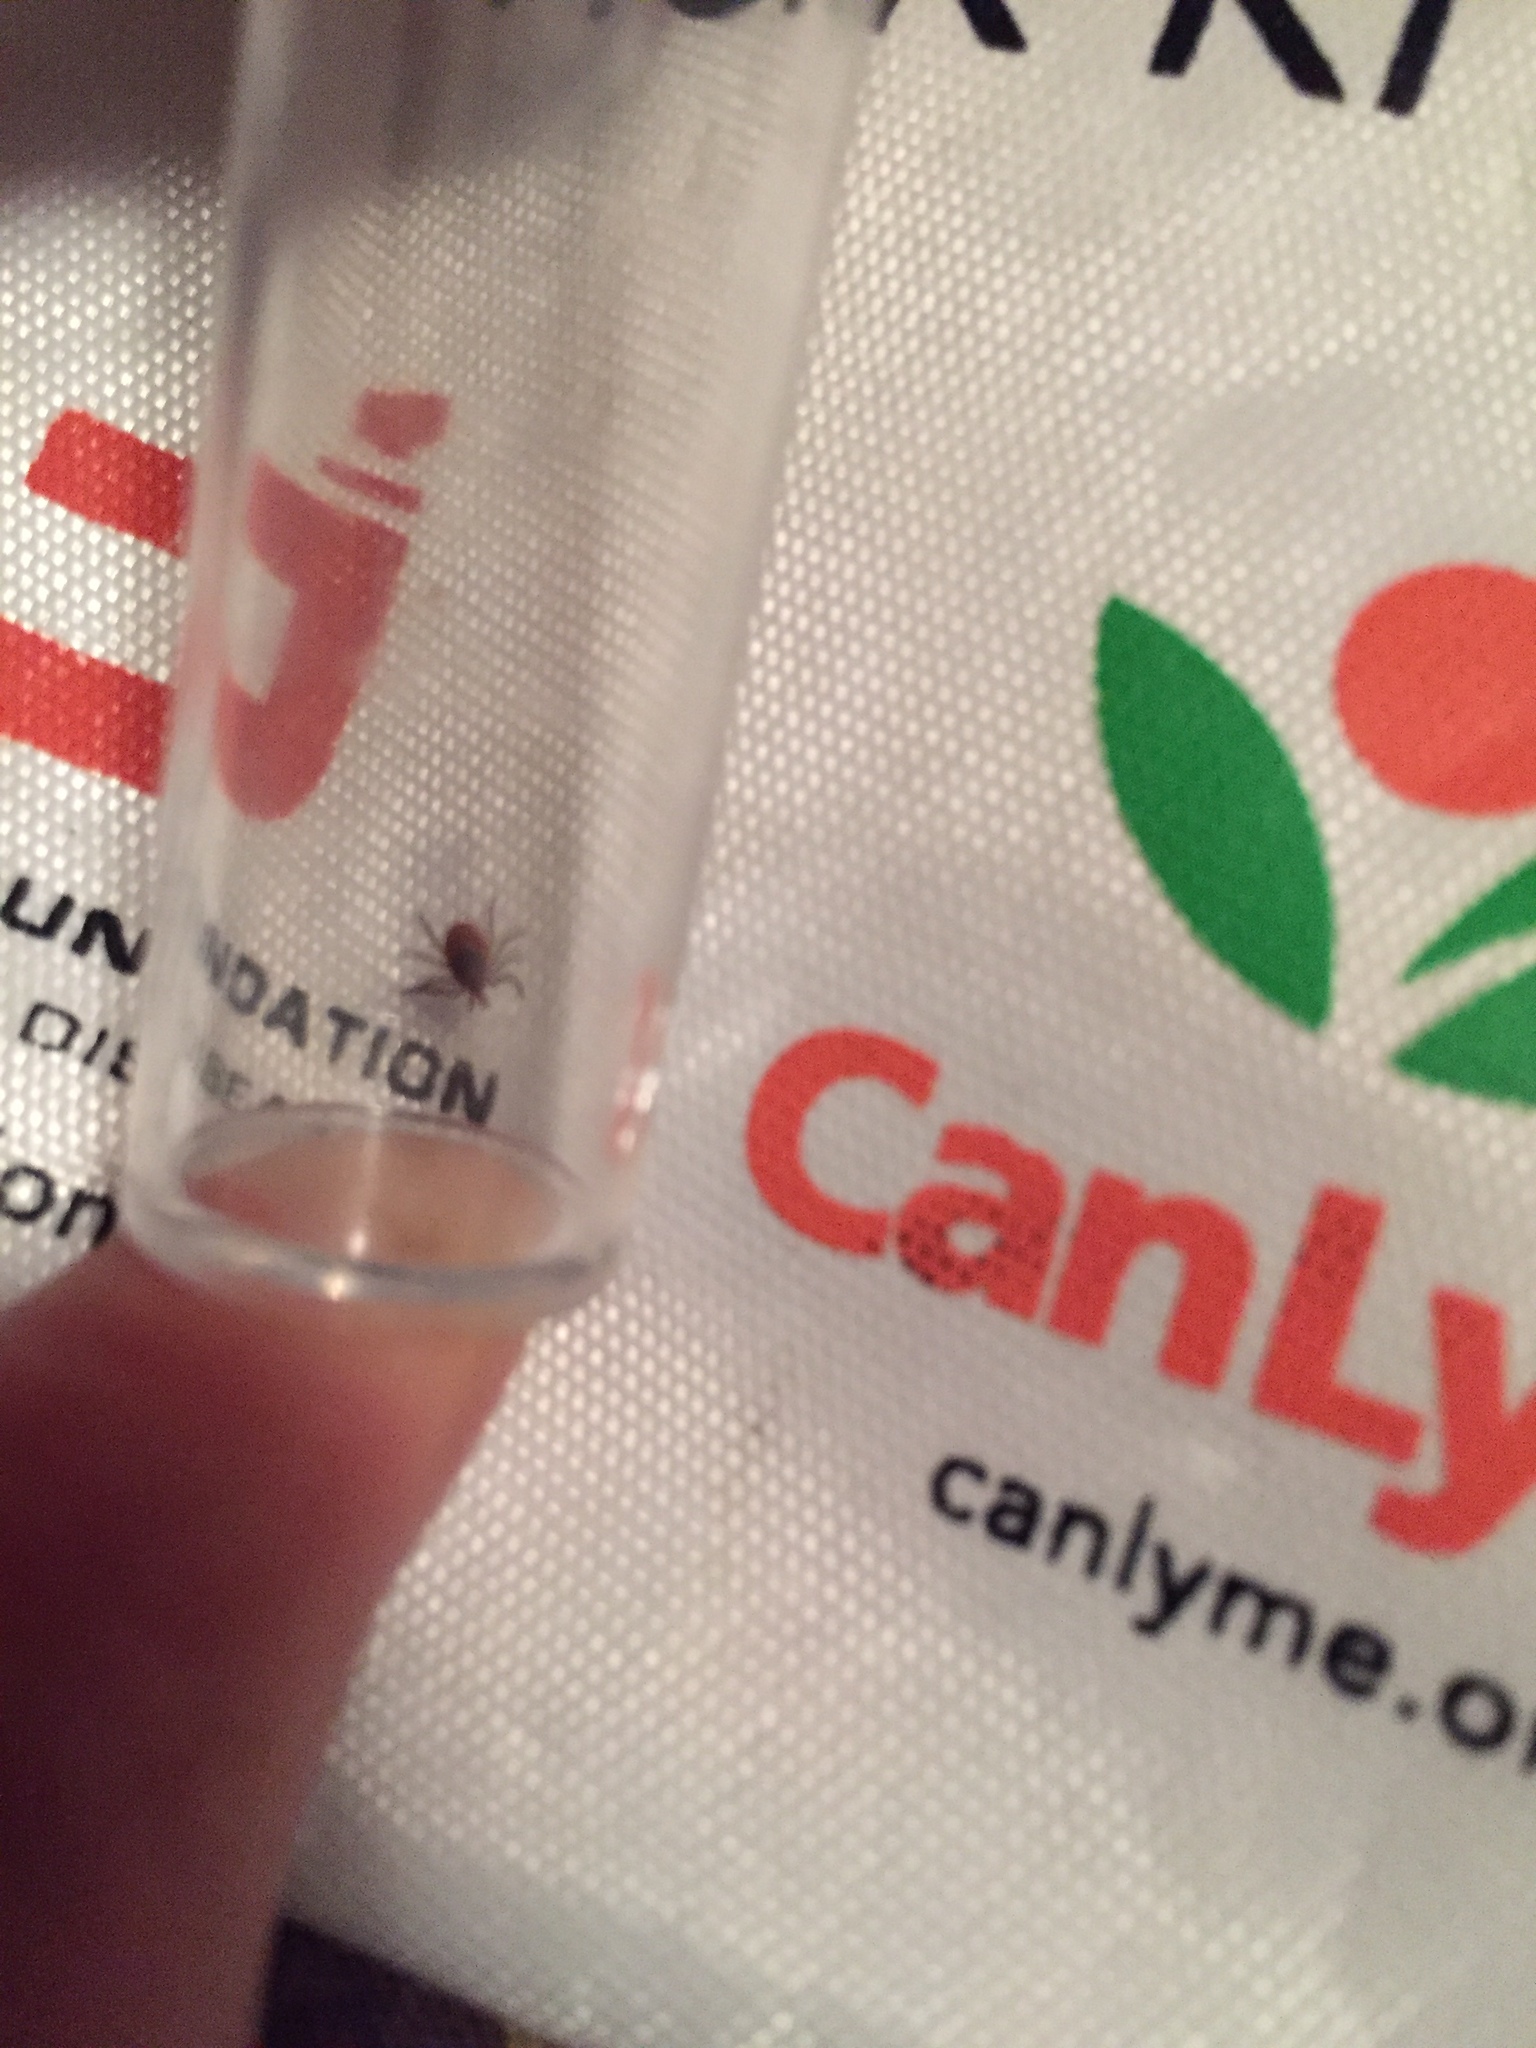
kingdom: Animalia
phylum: Arthropoda
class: Arachnida
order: Ixodida
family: Ixodidae
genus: Ixodes
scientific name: Ixodes scapularis
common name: Black legged tick
